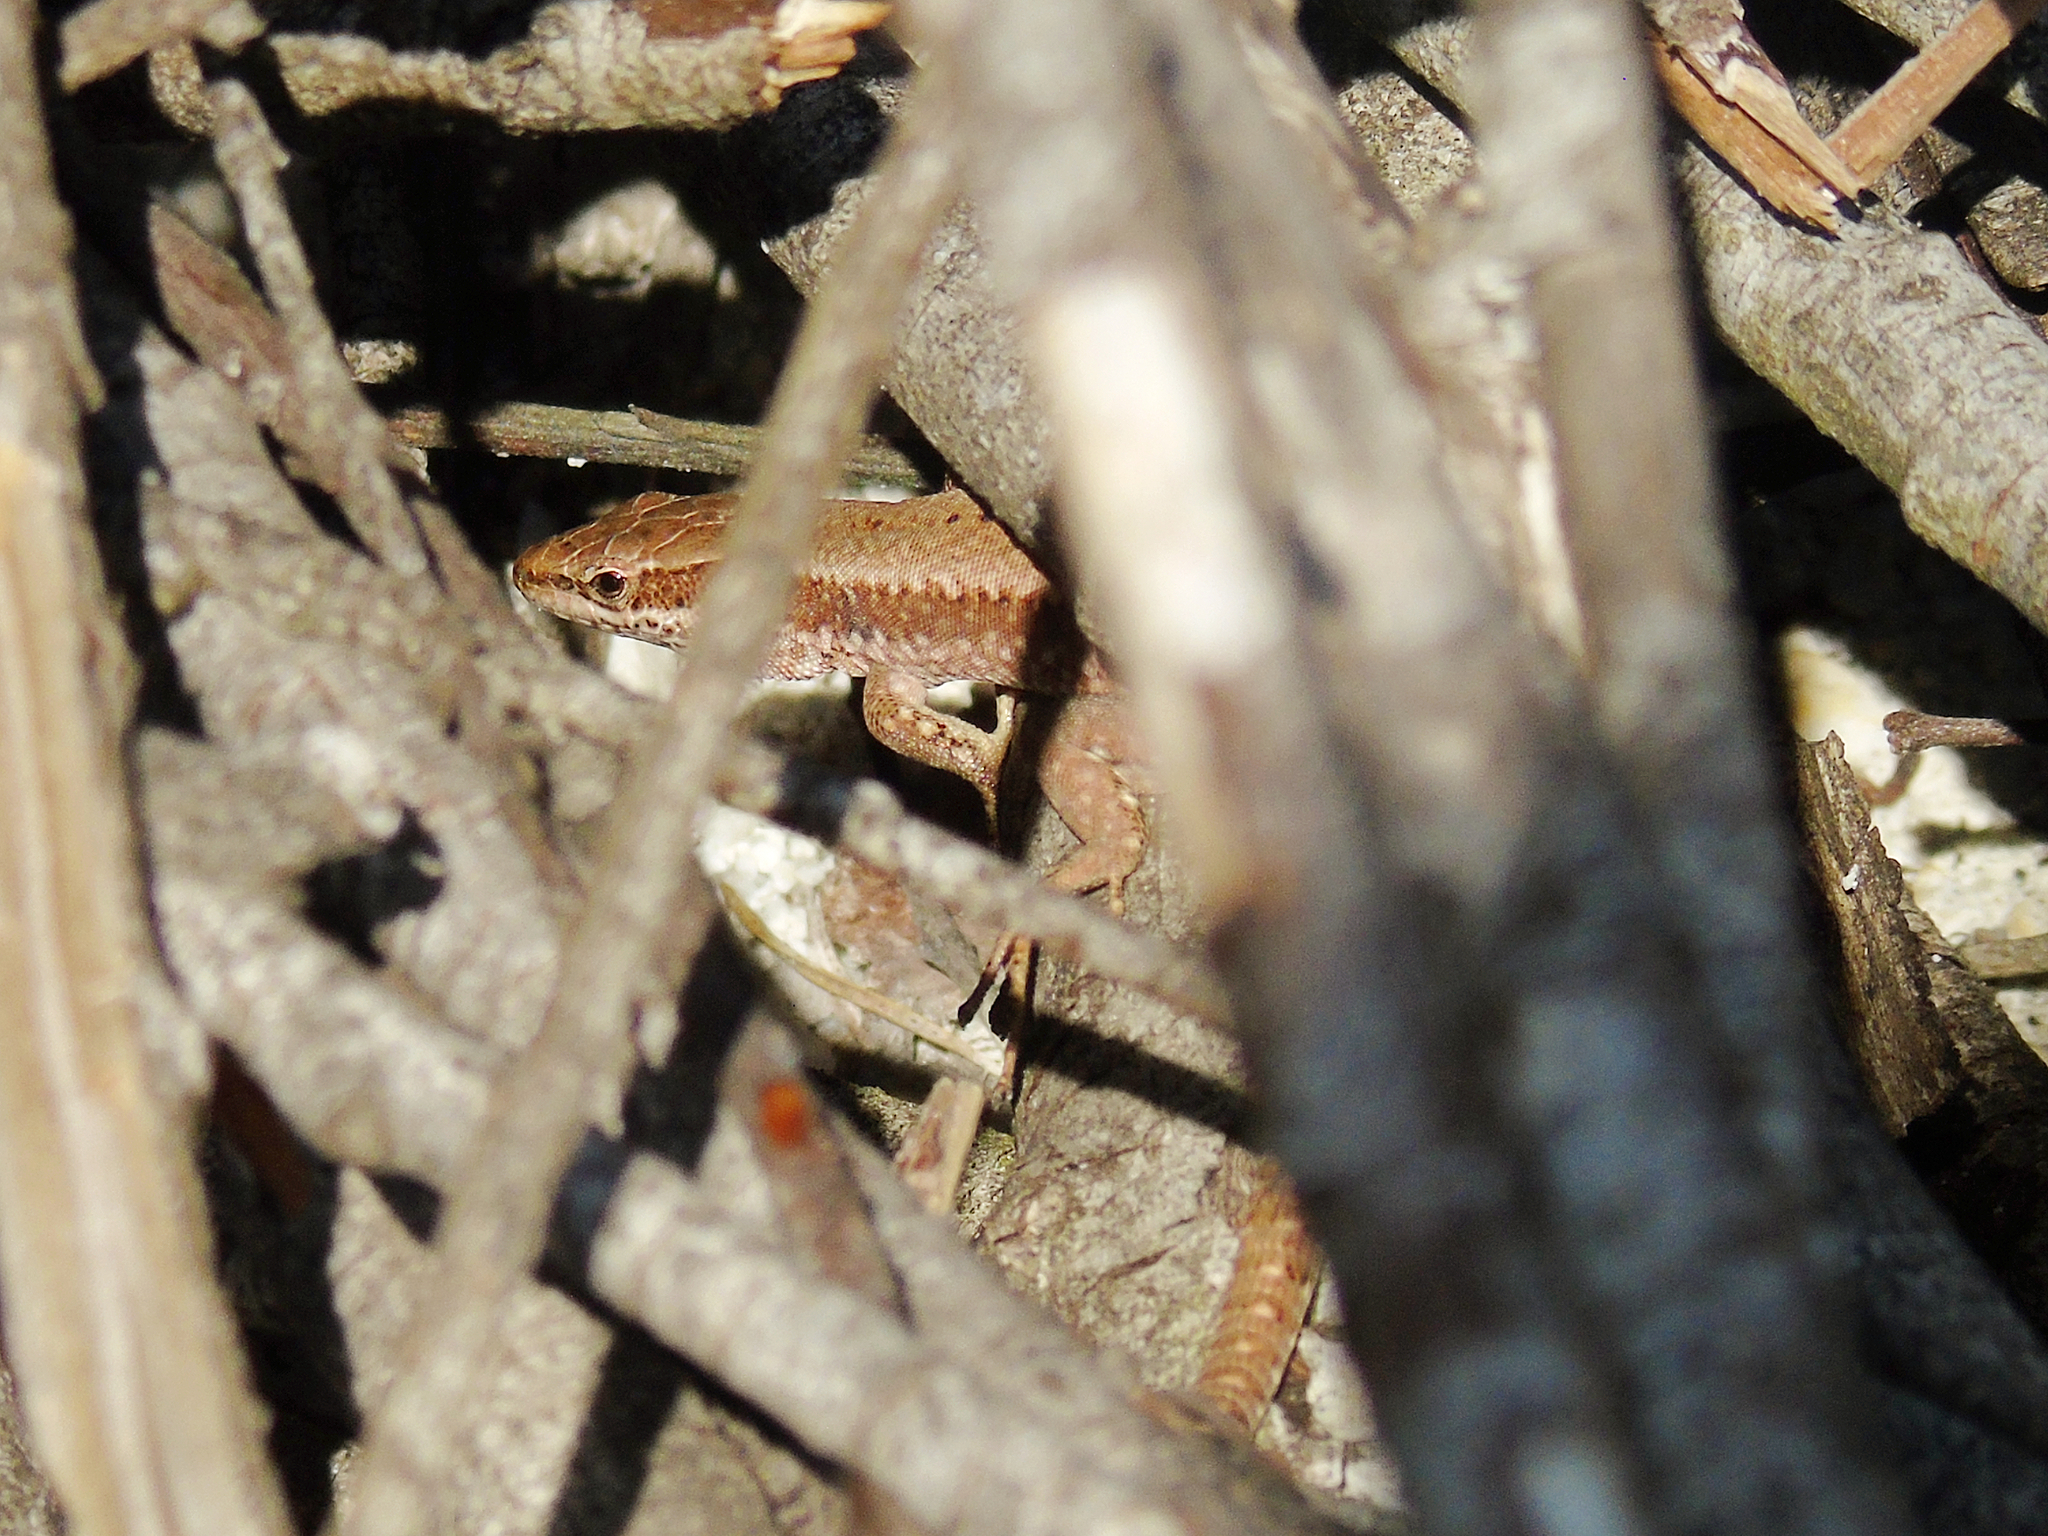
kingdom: Animalia
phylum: Chordata
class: Squamata
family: Lacertidae
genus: Podarcis
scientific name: Podarcis muralis
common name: Common wall lizard
